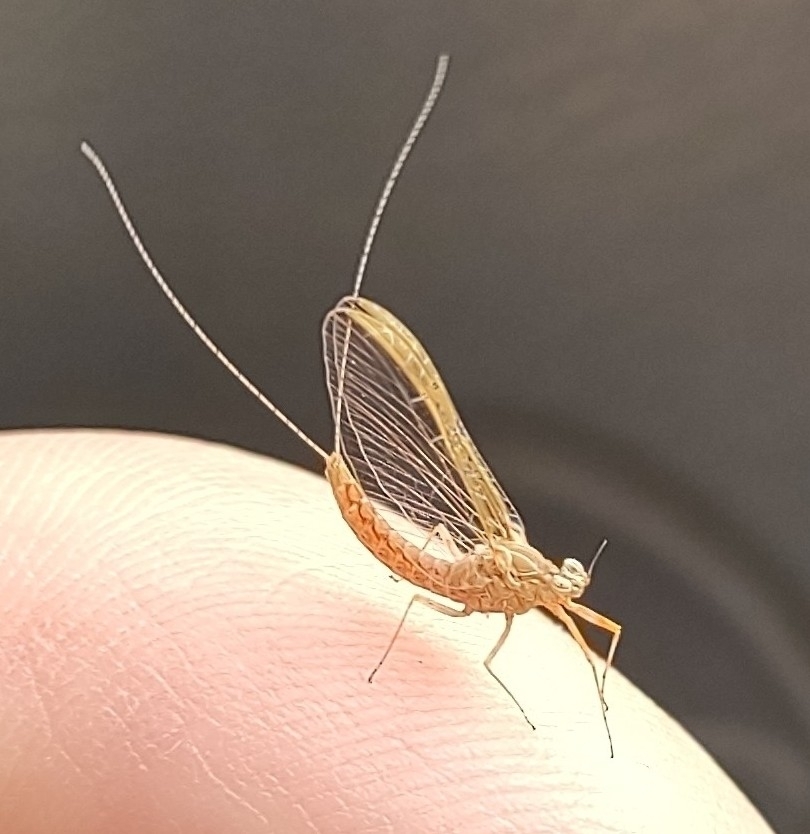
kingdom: Animalia
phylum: Arthropoda
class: Insecta
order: Ephemeroptera
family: Baetidae
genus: Cloeon
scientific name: Cloeon dipterum
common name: Pond olive
